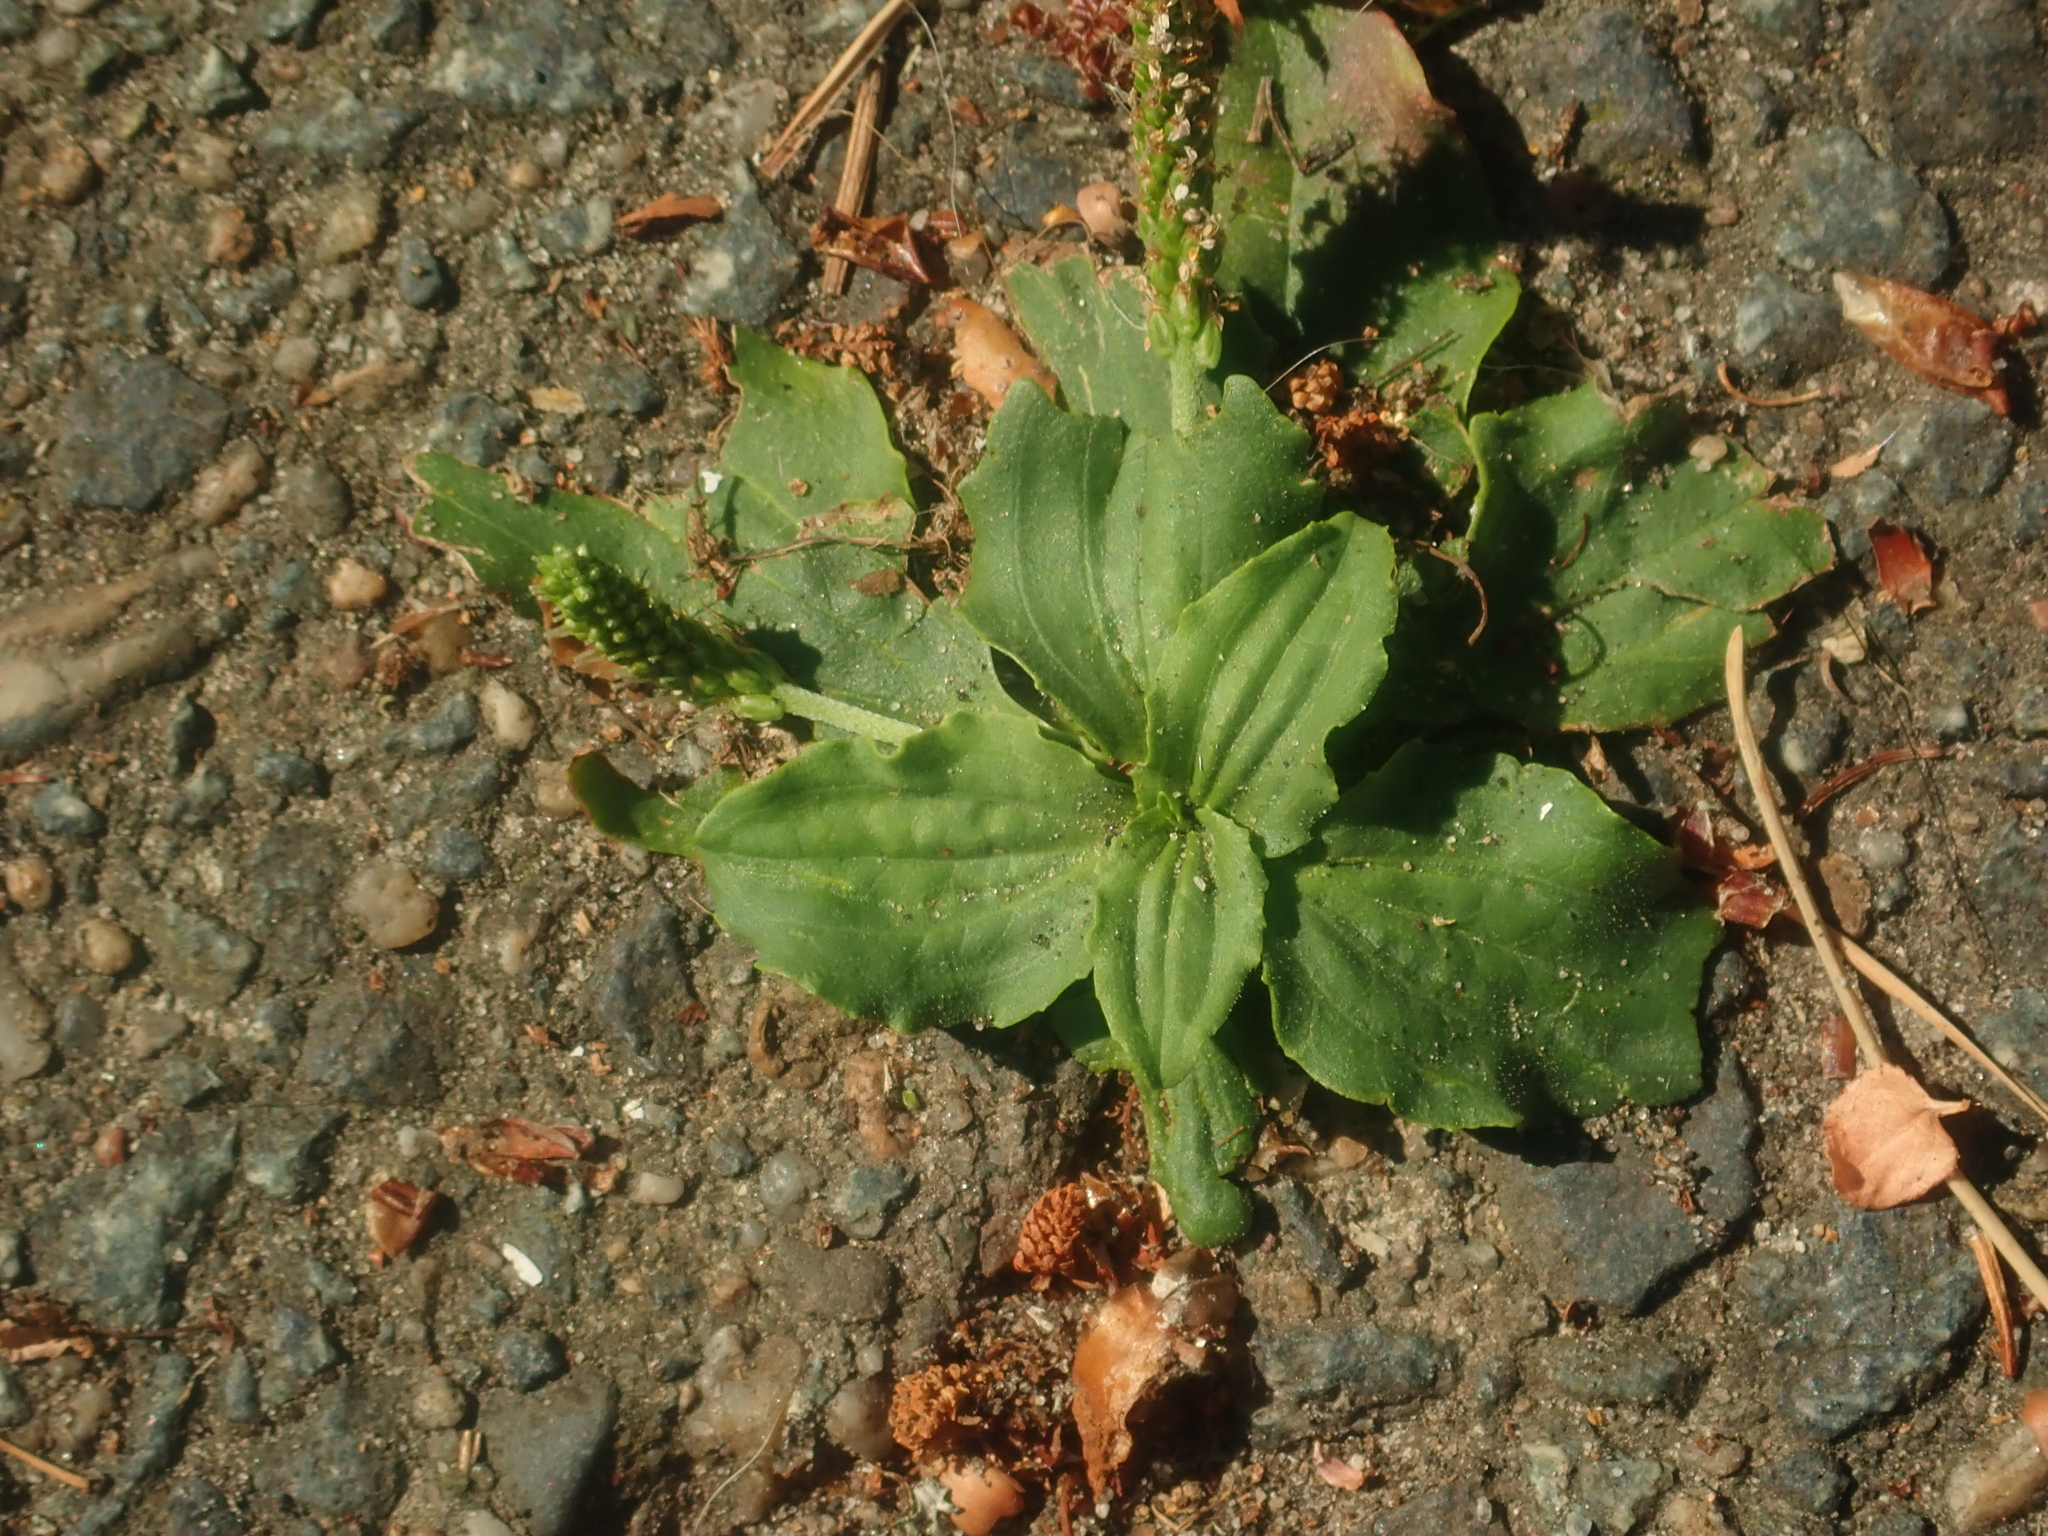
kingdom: Plantae
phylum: Tracheophyta
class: Magnoliopsida
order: Lamiales
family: Plantaginaceae
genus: Plantago
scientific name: Plantago major
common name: Common plantain
